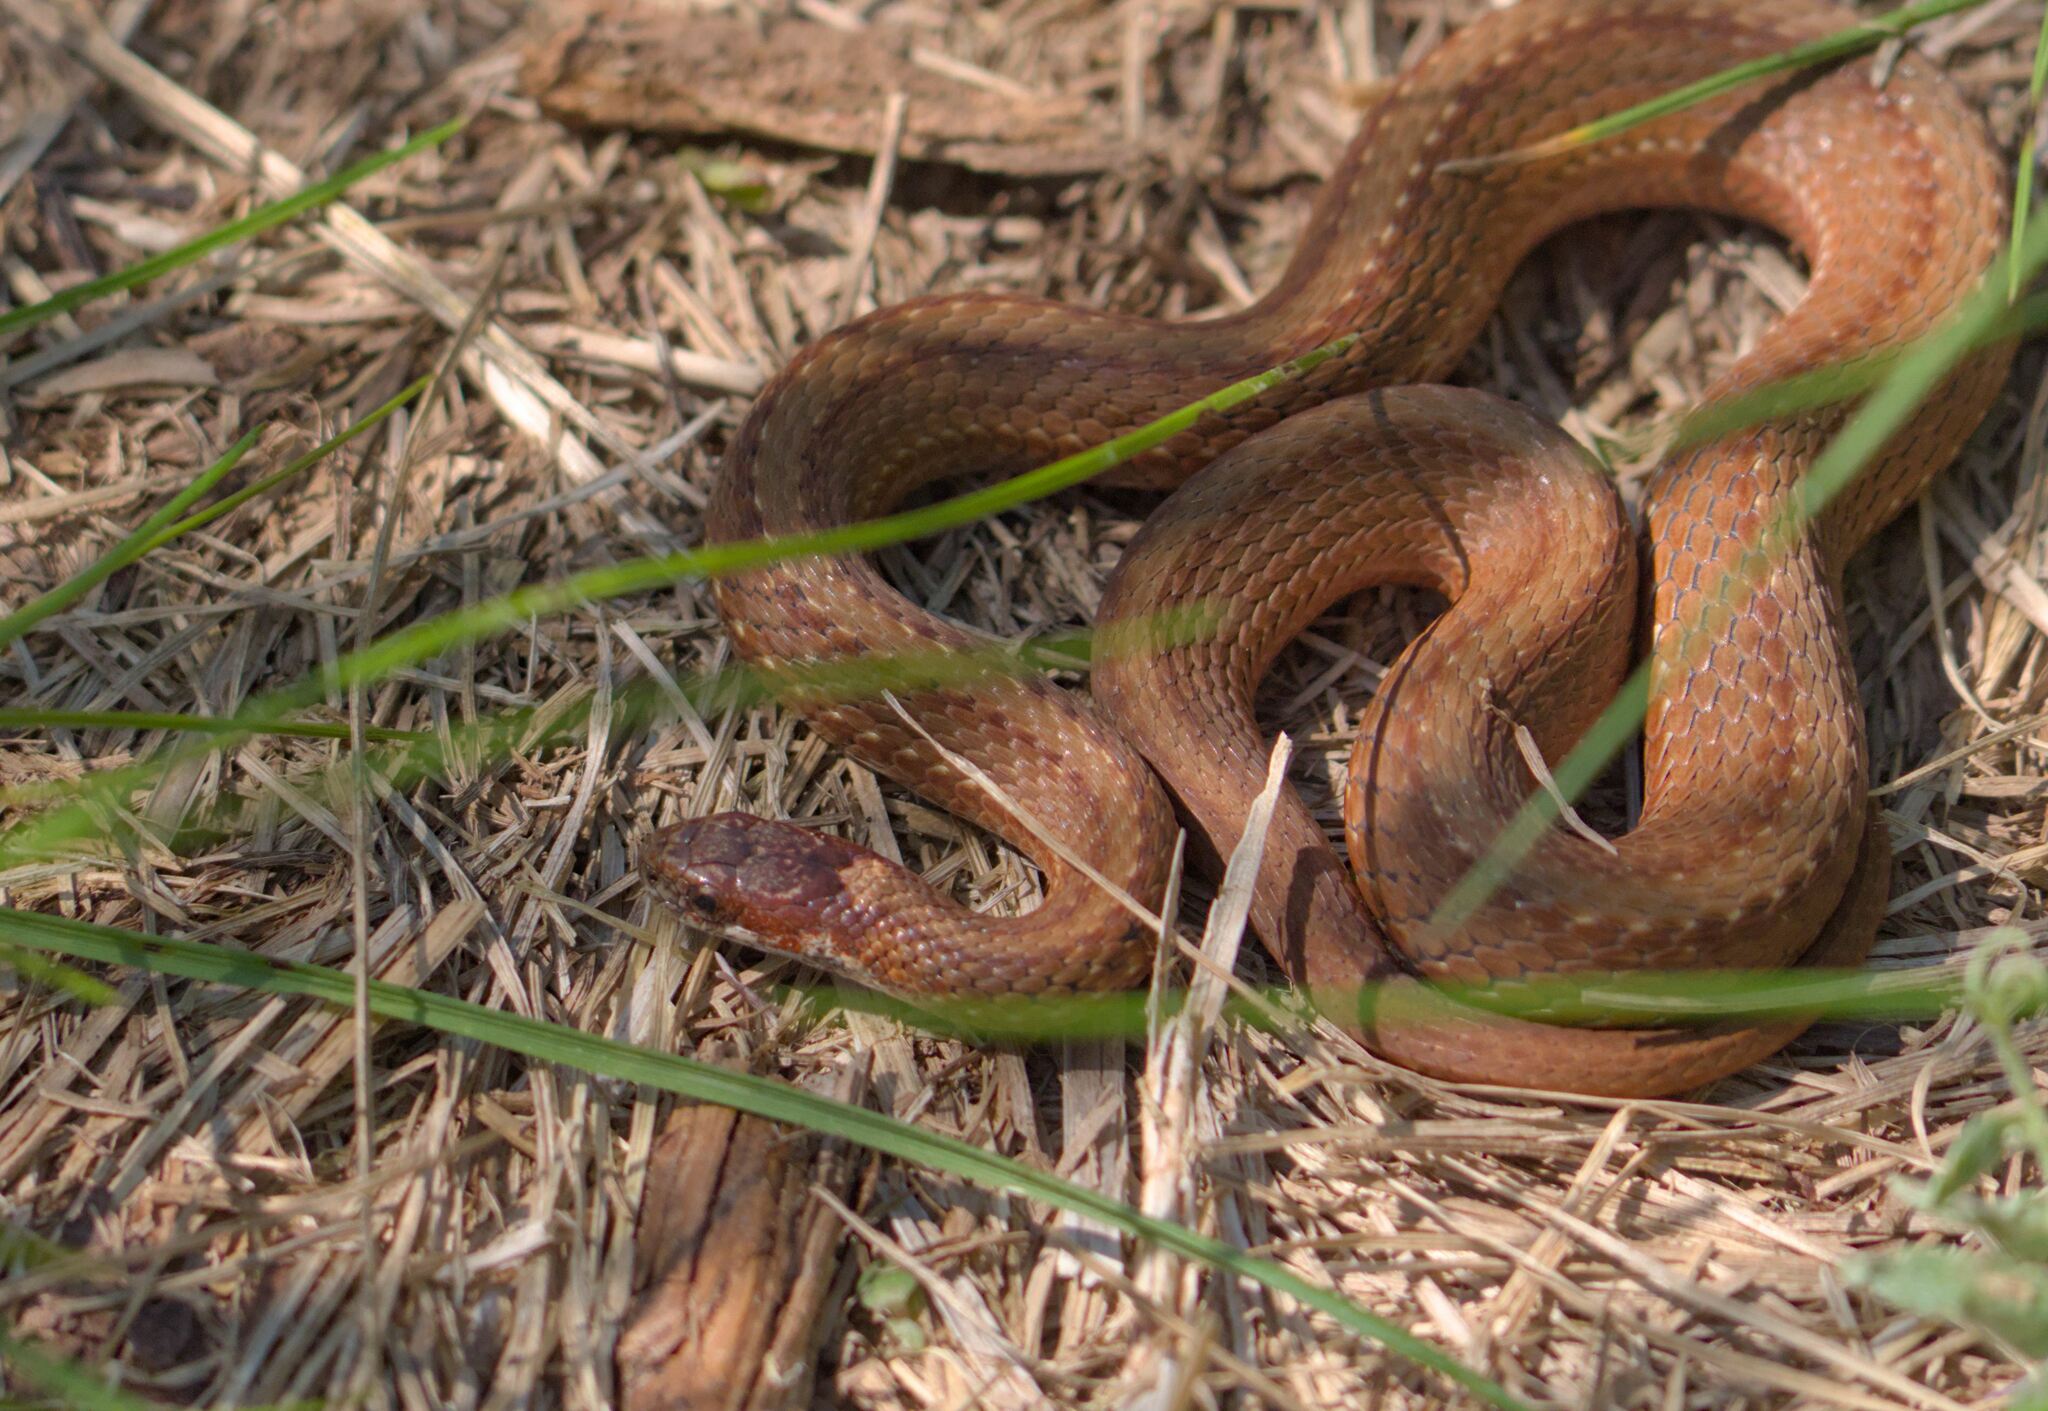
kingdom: Animalia
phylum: Chordata
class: Squamata
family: Colubridae
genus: Storeria
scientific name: Storeria occipitomaculata
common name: Redbelly snake
